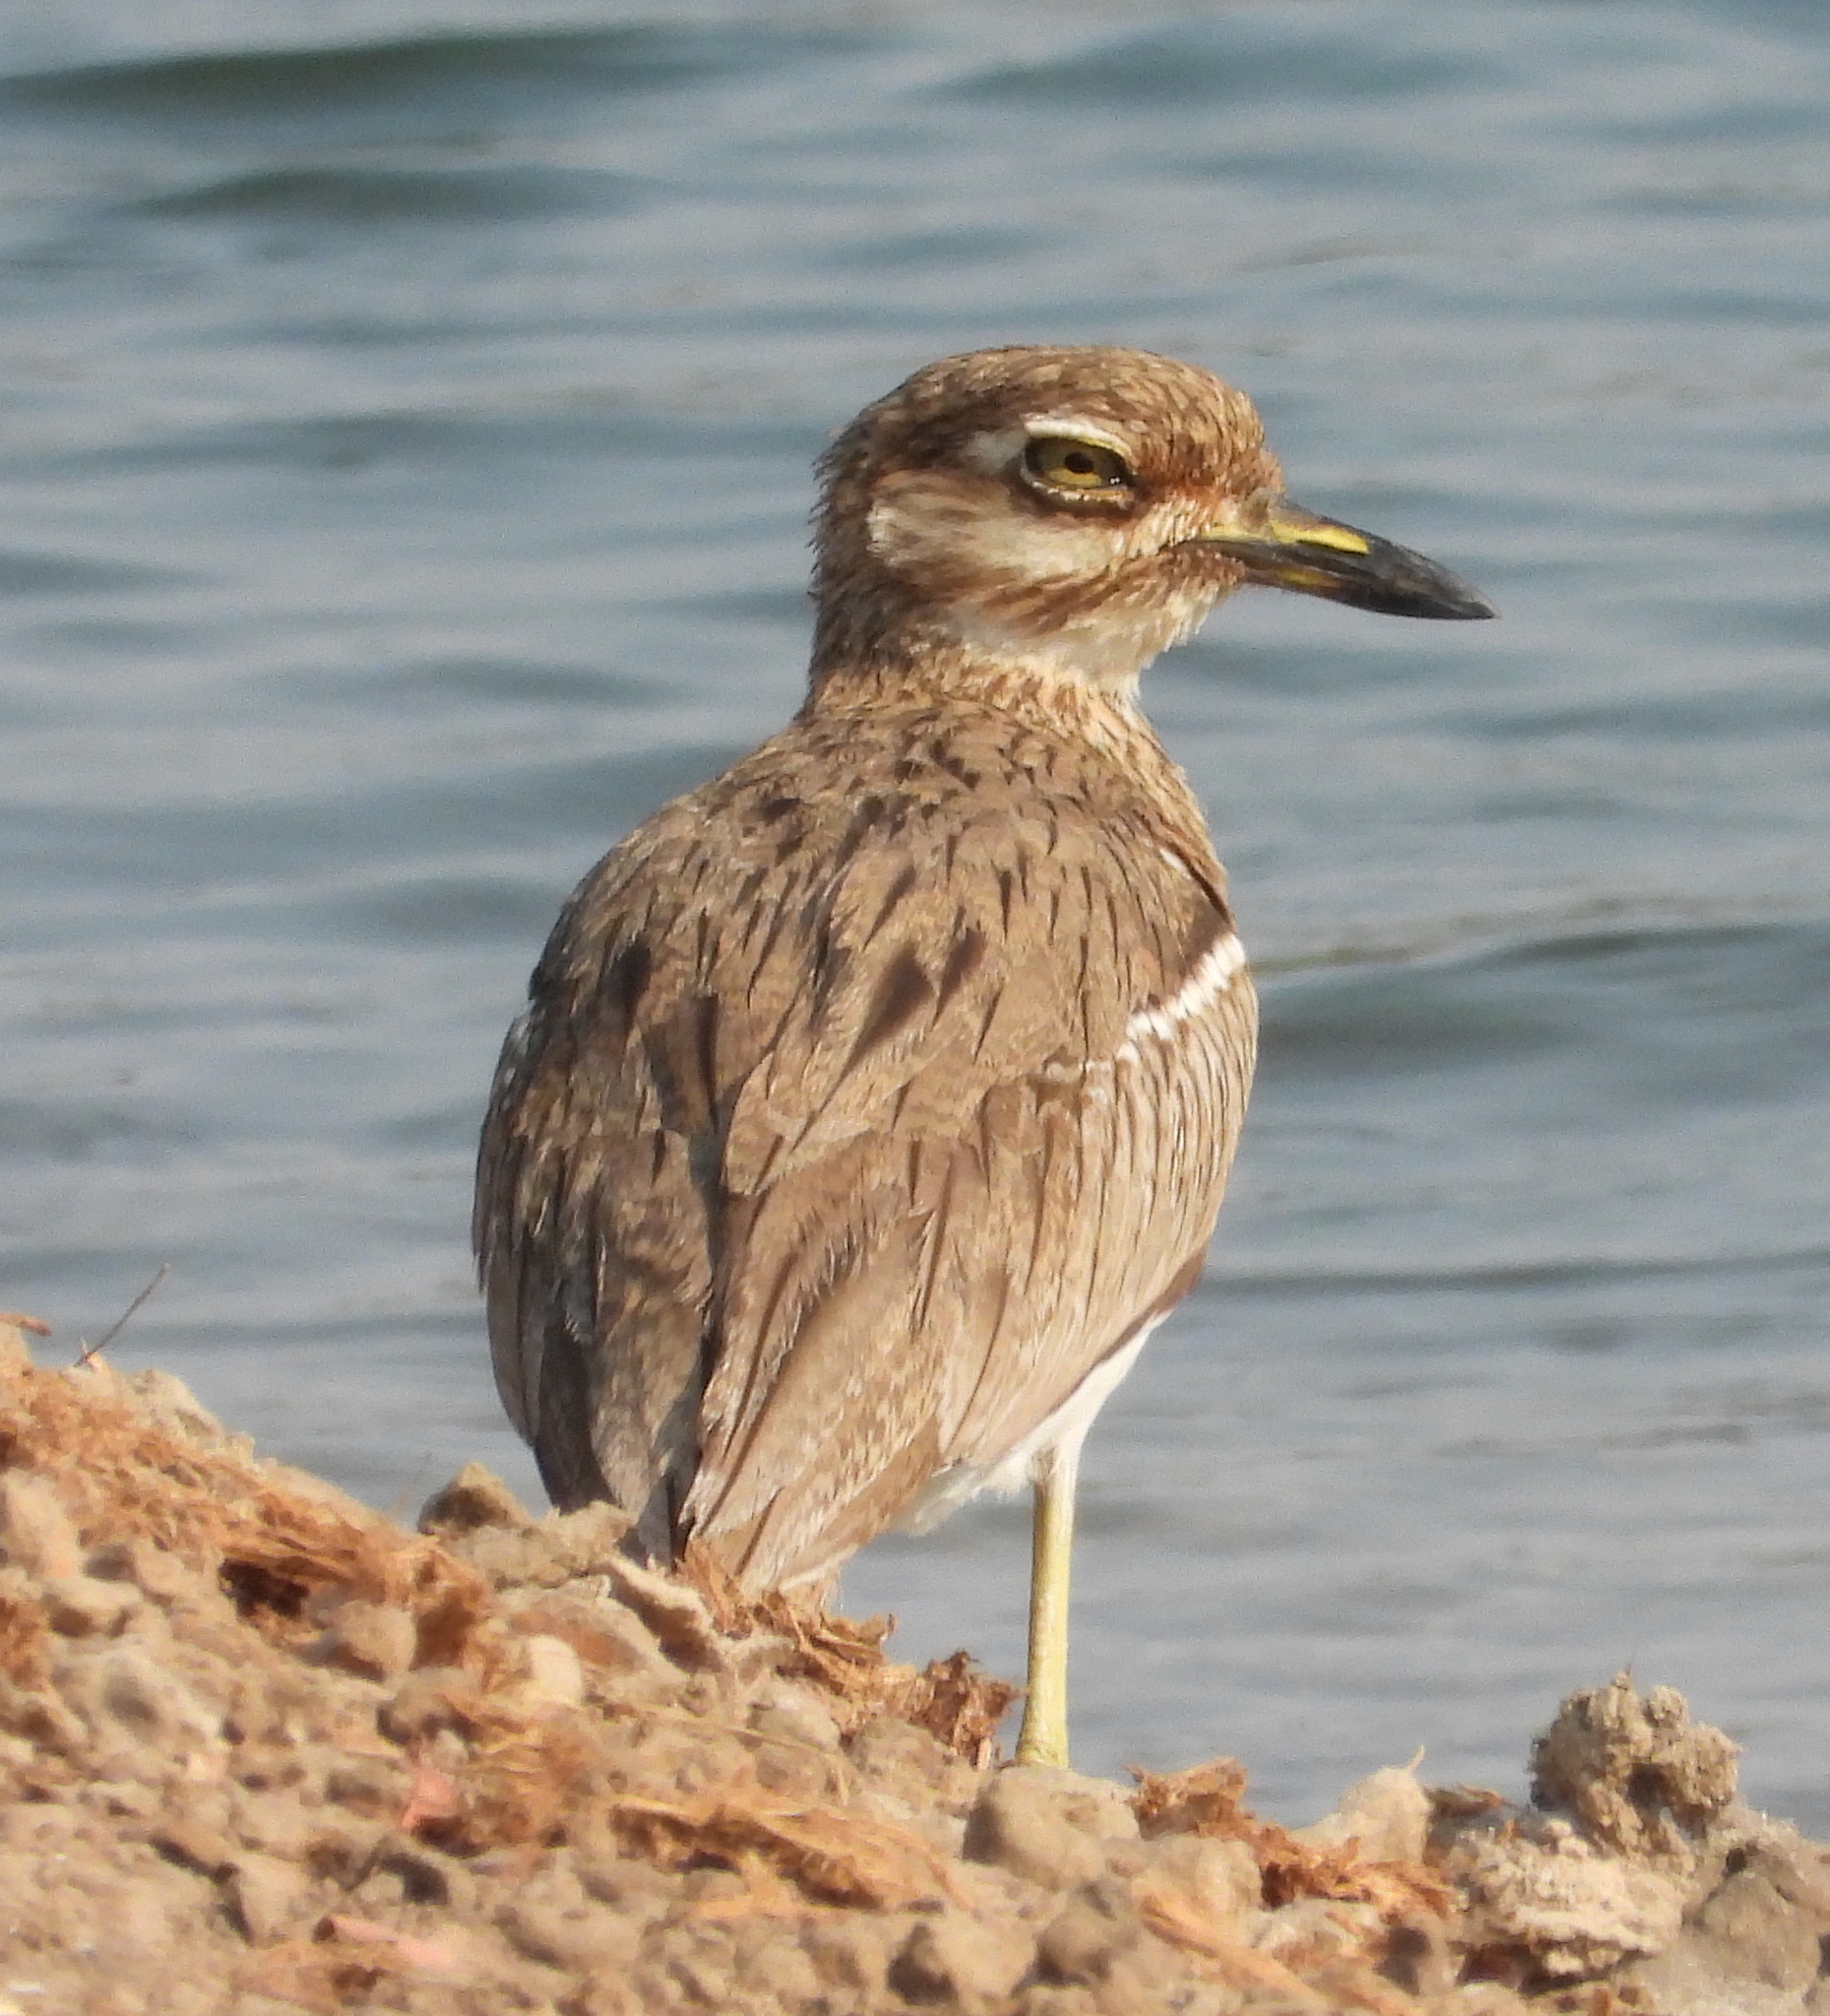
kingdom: Animalia
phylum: Chordata
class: Aves
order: Charadriiformes
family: Burhinidae
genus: Burhinus
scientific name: Burhinus vermiculatus
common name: Water thick-knee
